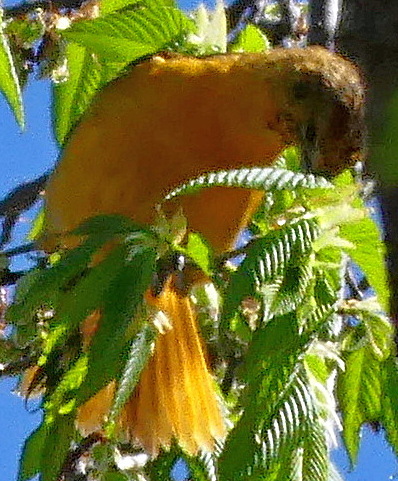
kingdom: Animalia
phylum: Chordata
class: Aves
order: Passeriformes
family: Icteridae
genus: Icterus
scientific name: Icterus galbula
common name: Baltimore oriole
